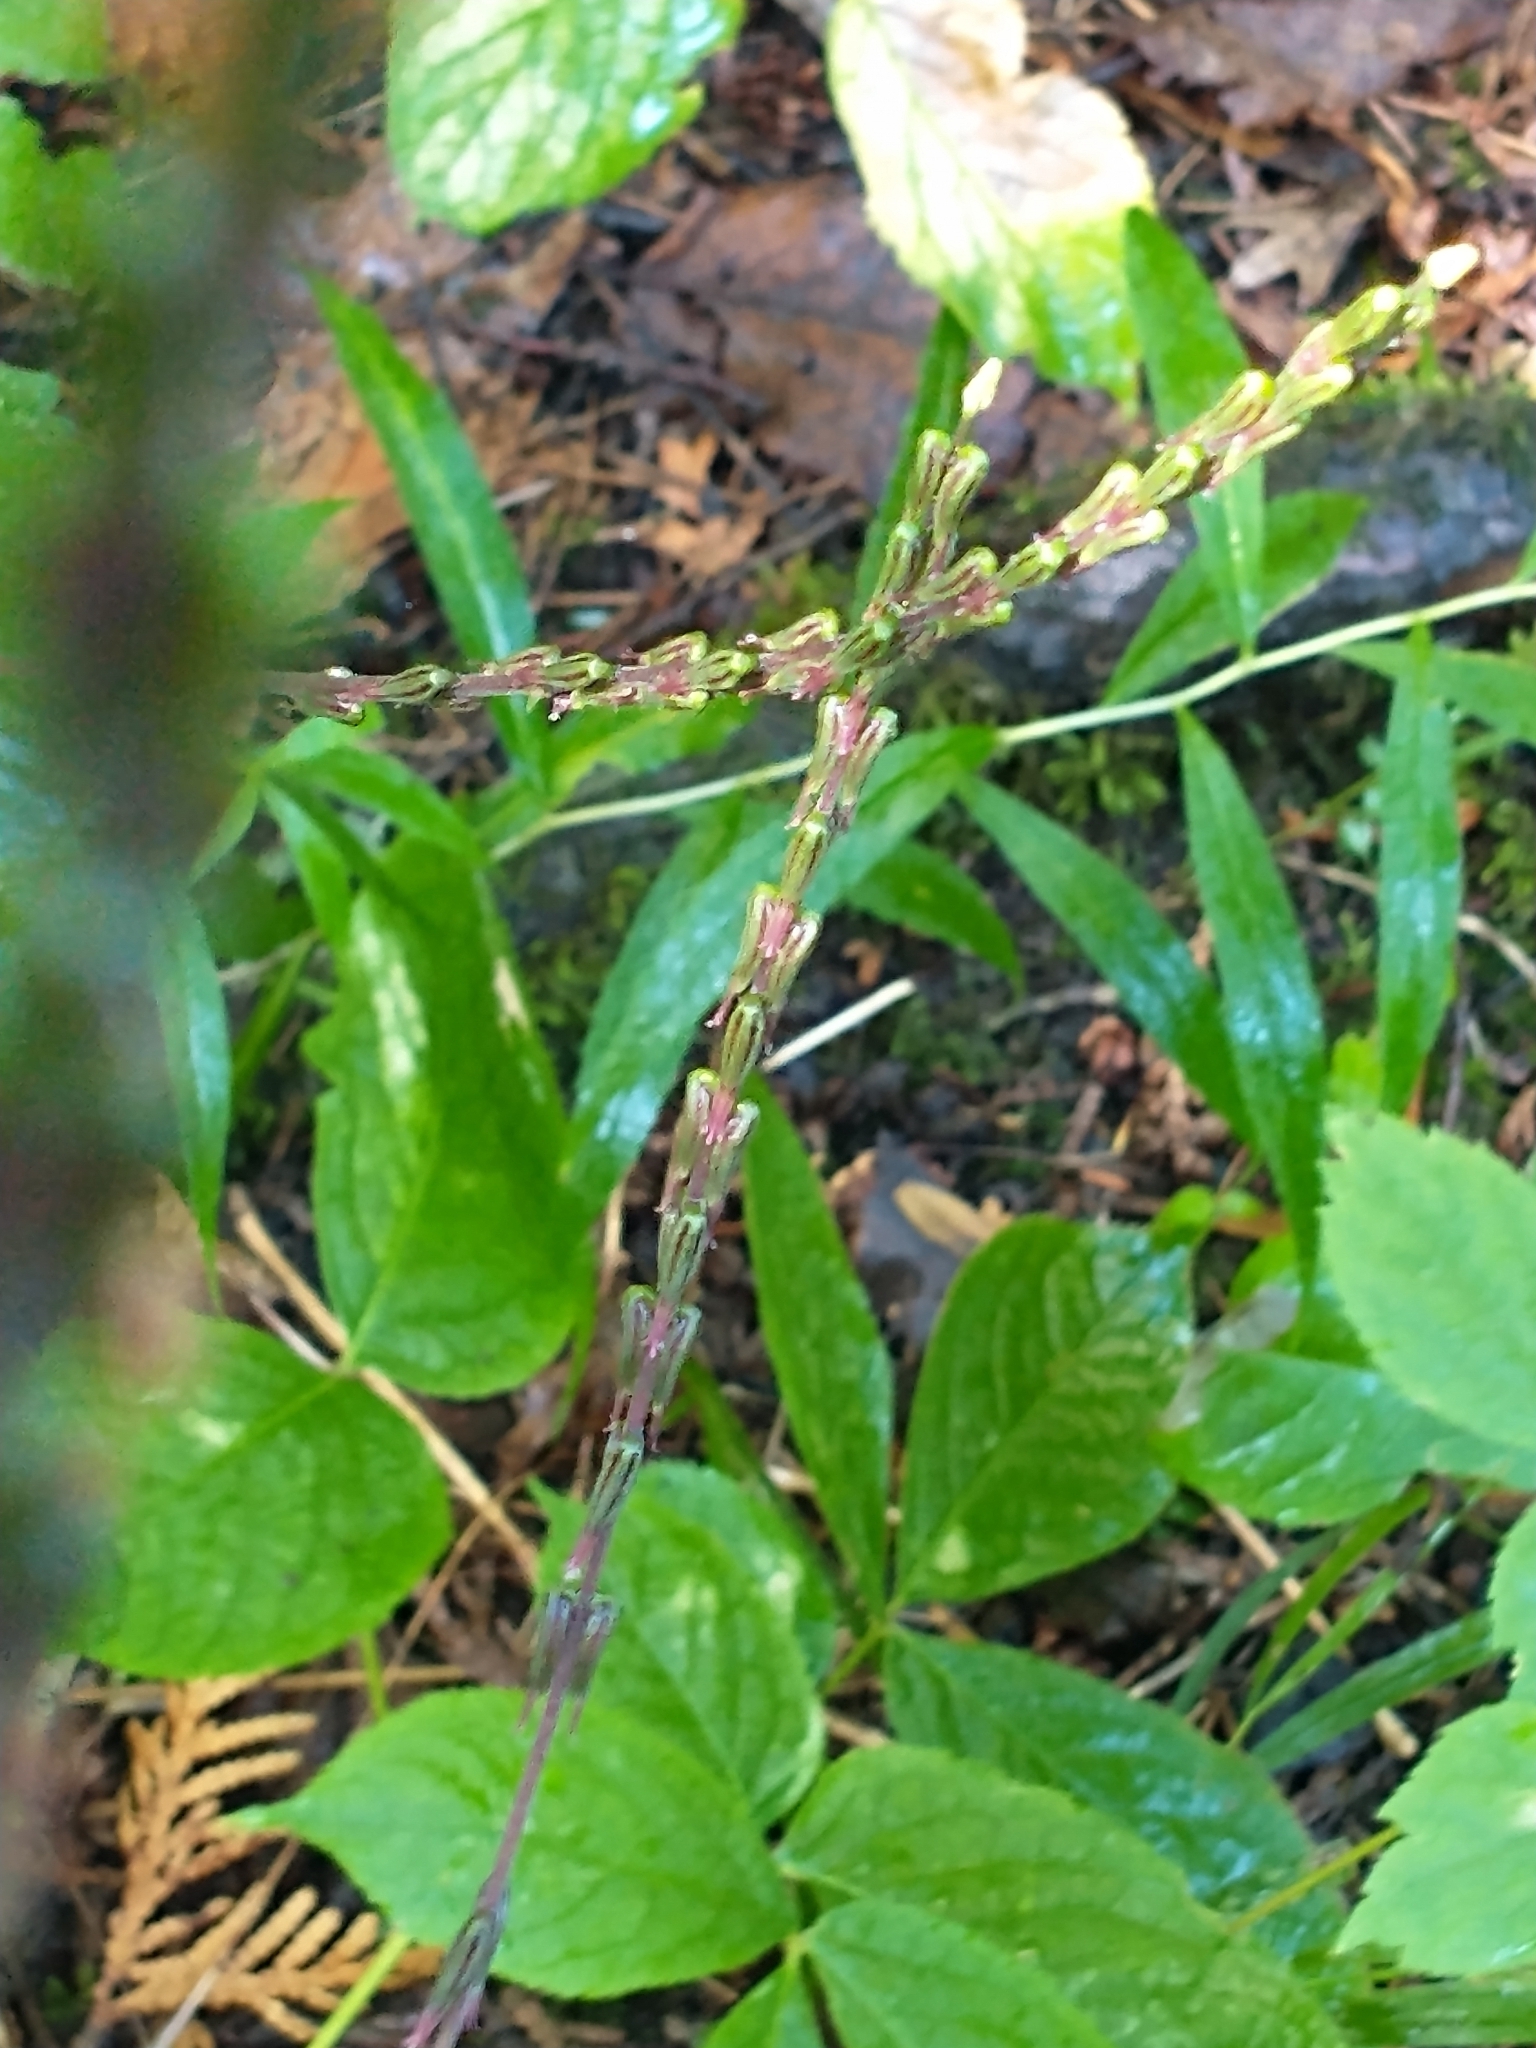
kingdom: Plantae
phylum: Tracheophyta
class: Magnoliopsida
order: Lamiales
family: Phrymaceae
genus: Phryma
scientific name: Phryma leptostachya
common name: American lopseed
